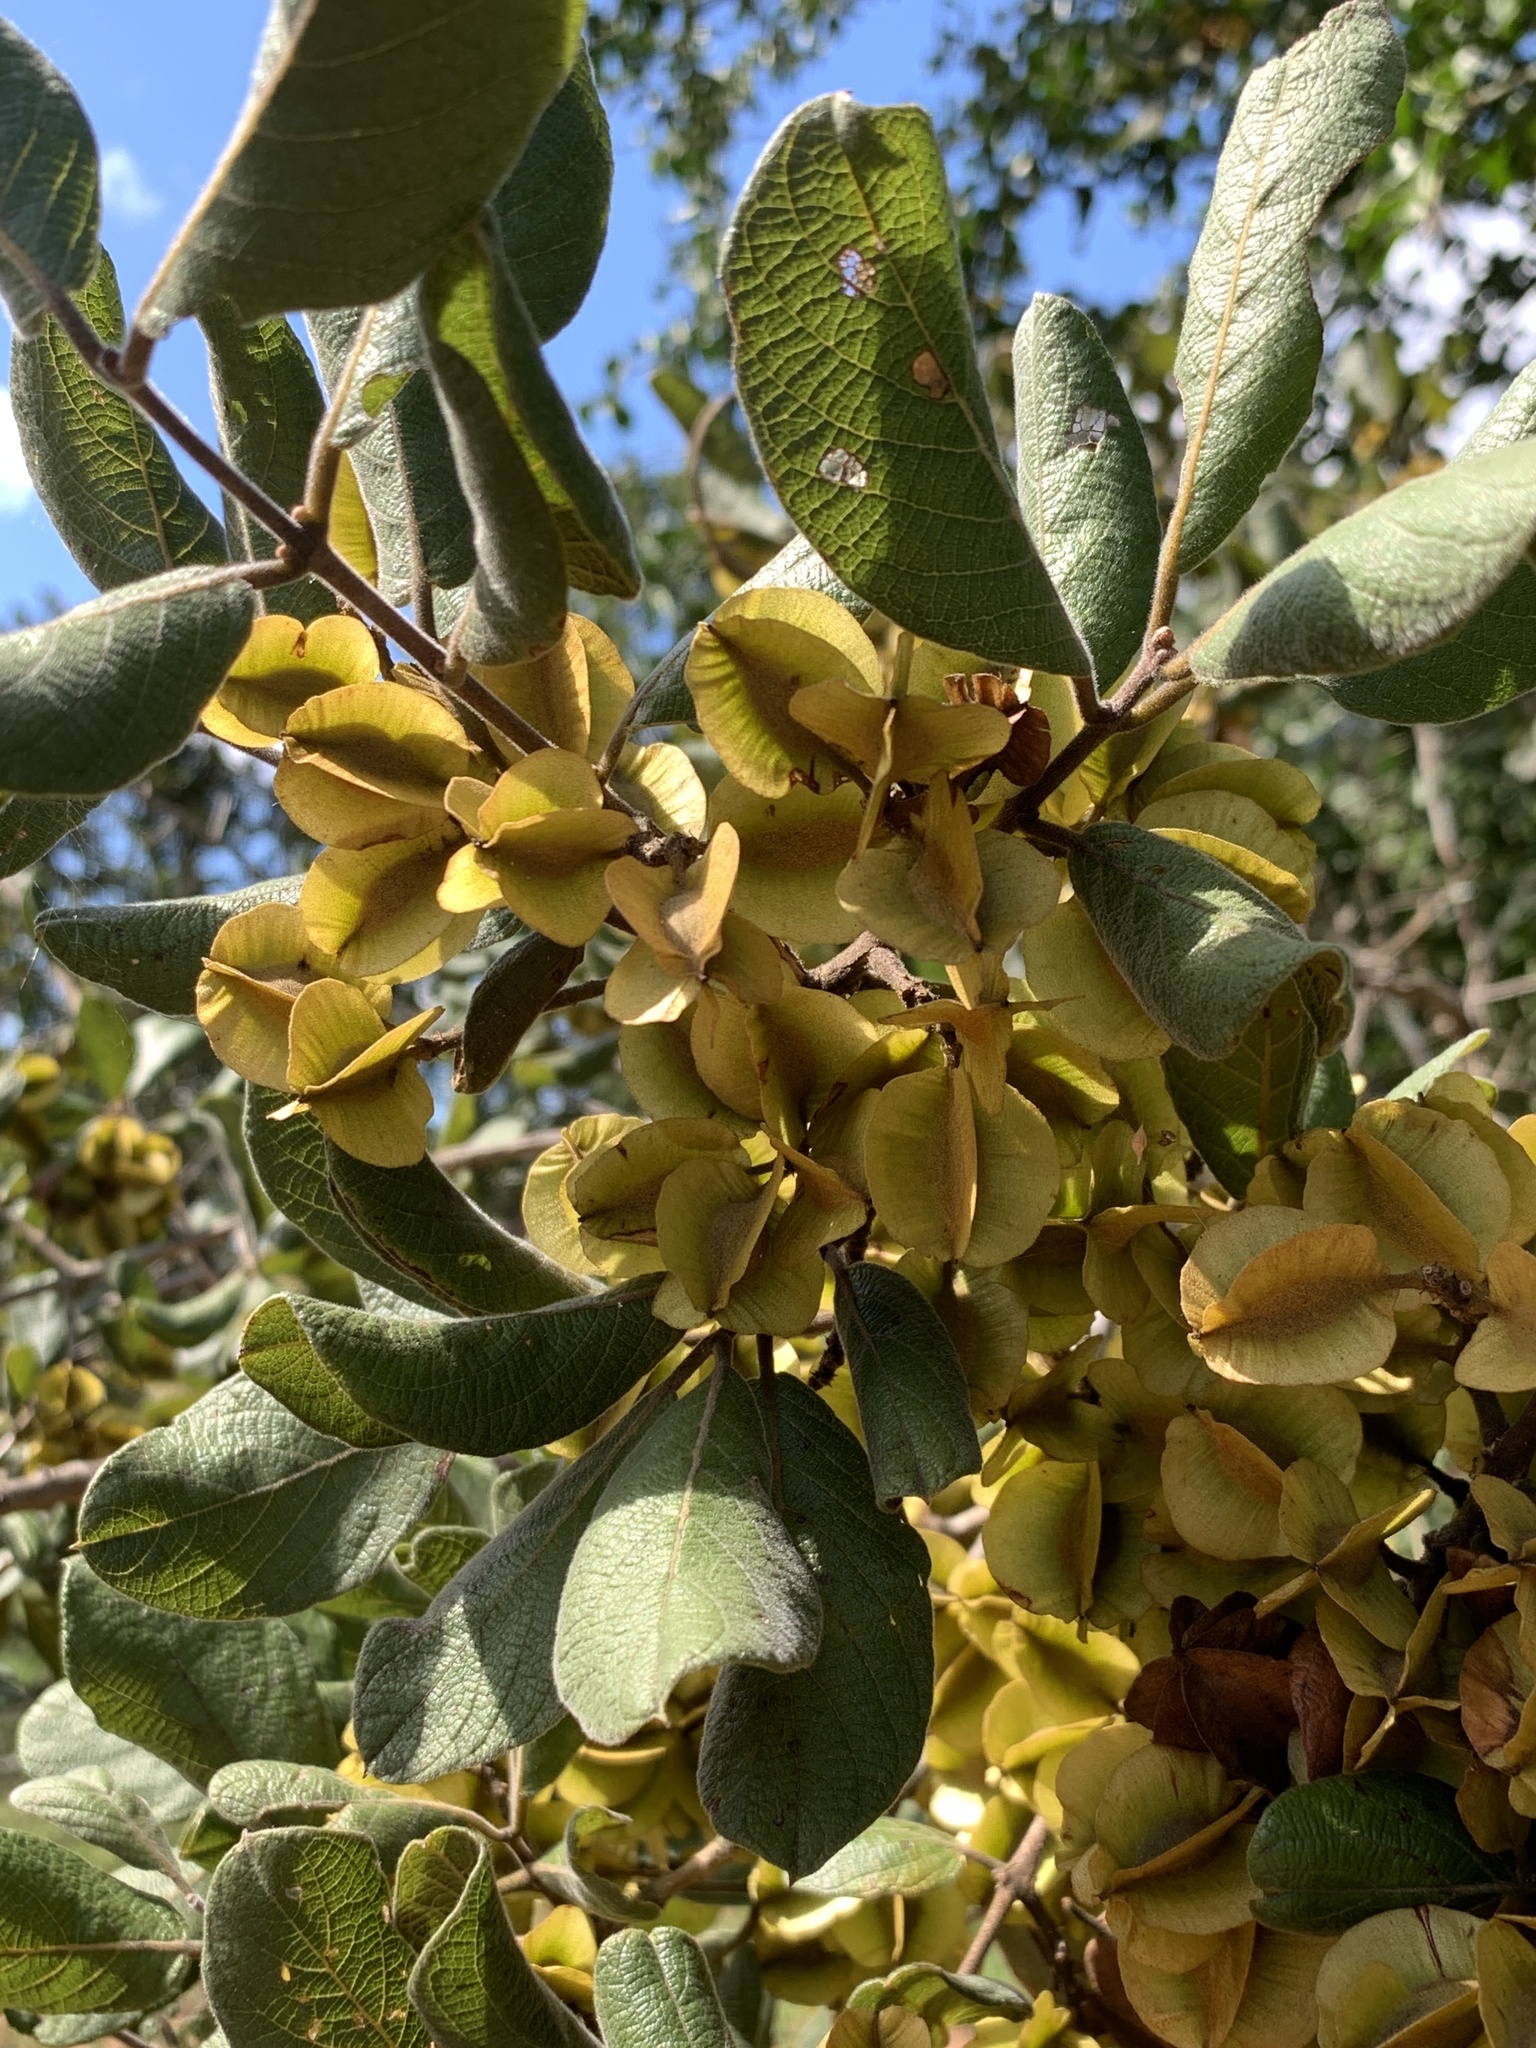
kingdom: Plantae
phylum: Tracheophyta
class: Magnoliopsida
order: Myrtales
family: Combretaceae
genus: Combretum
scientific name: Combretum molle
